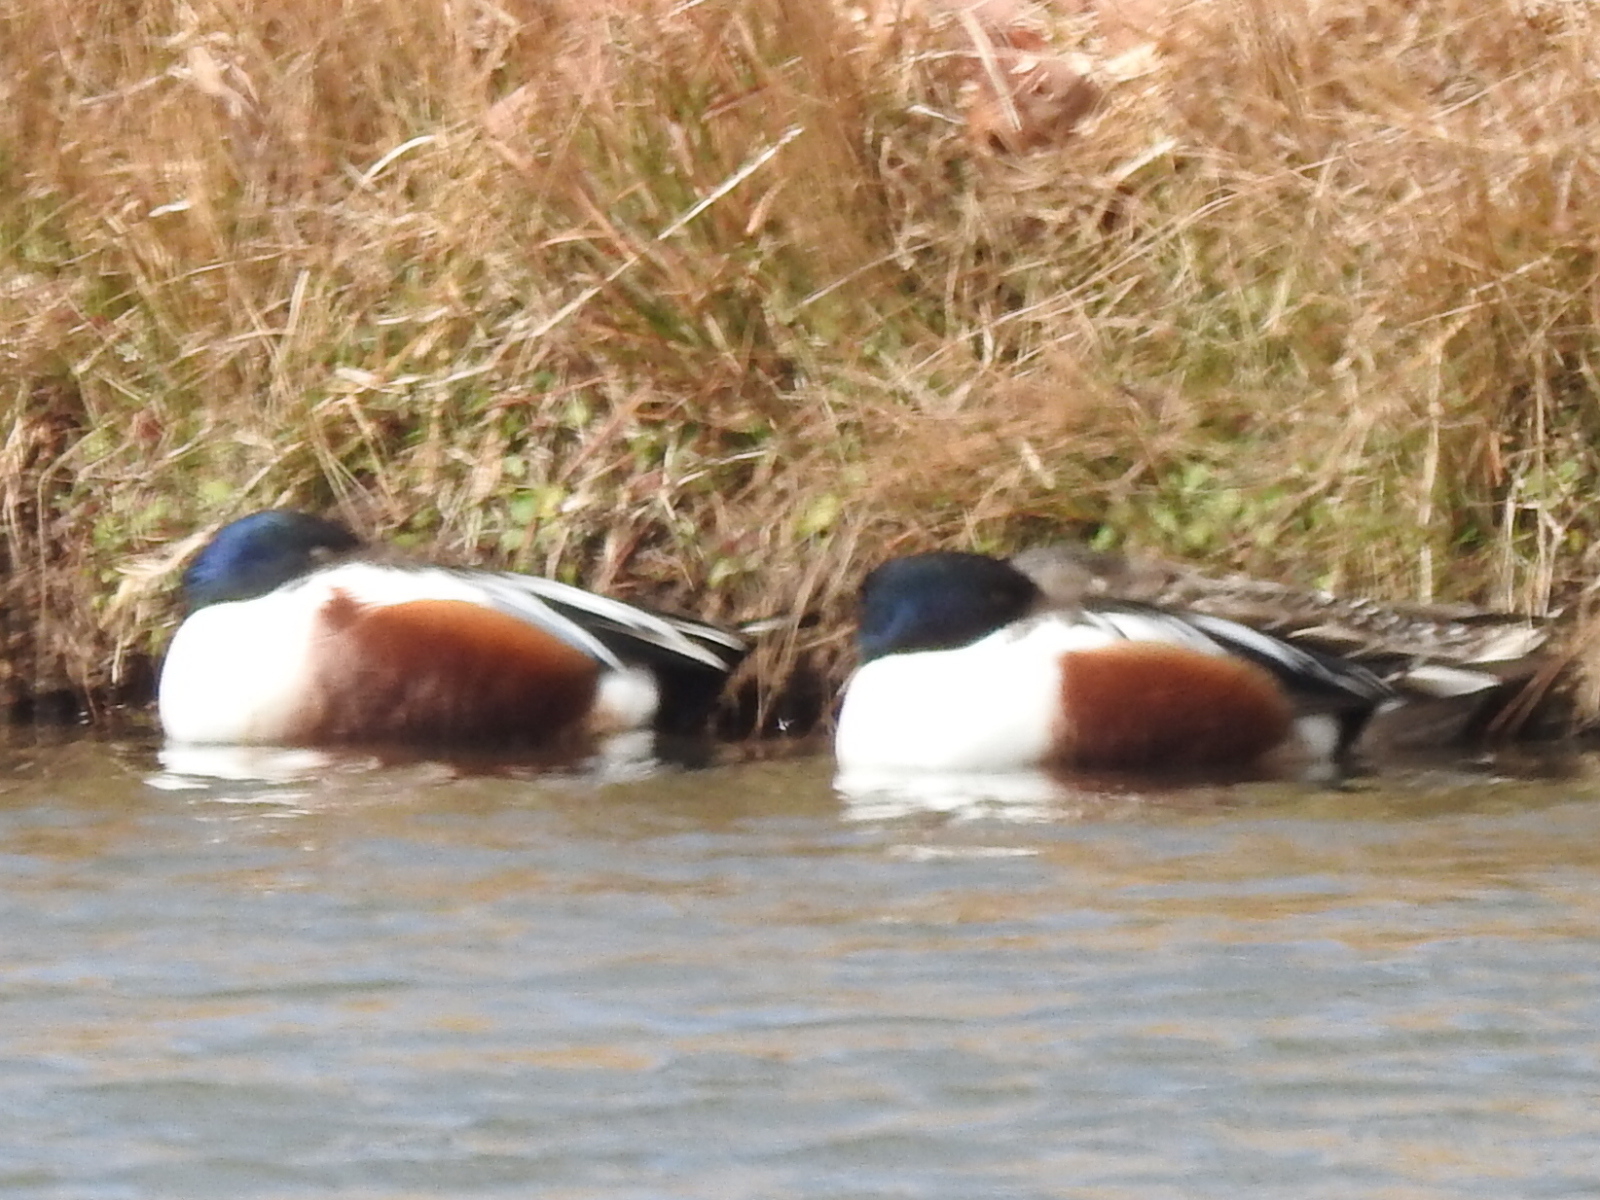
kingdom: Animalia
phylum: Chordata
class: Aves
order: Anseriformes
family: Anatidae
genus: Spatula
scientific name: Spatula clypeata
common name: Northern shoveler
